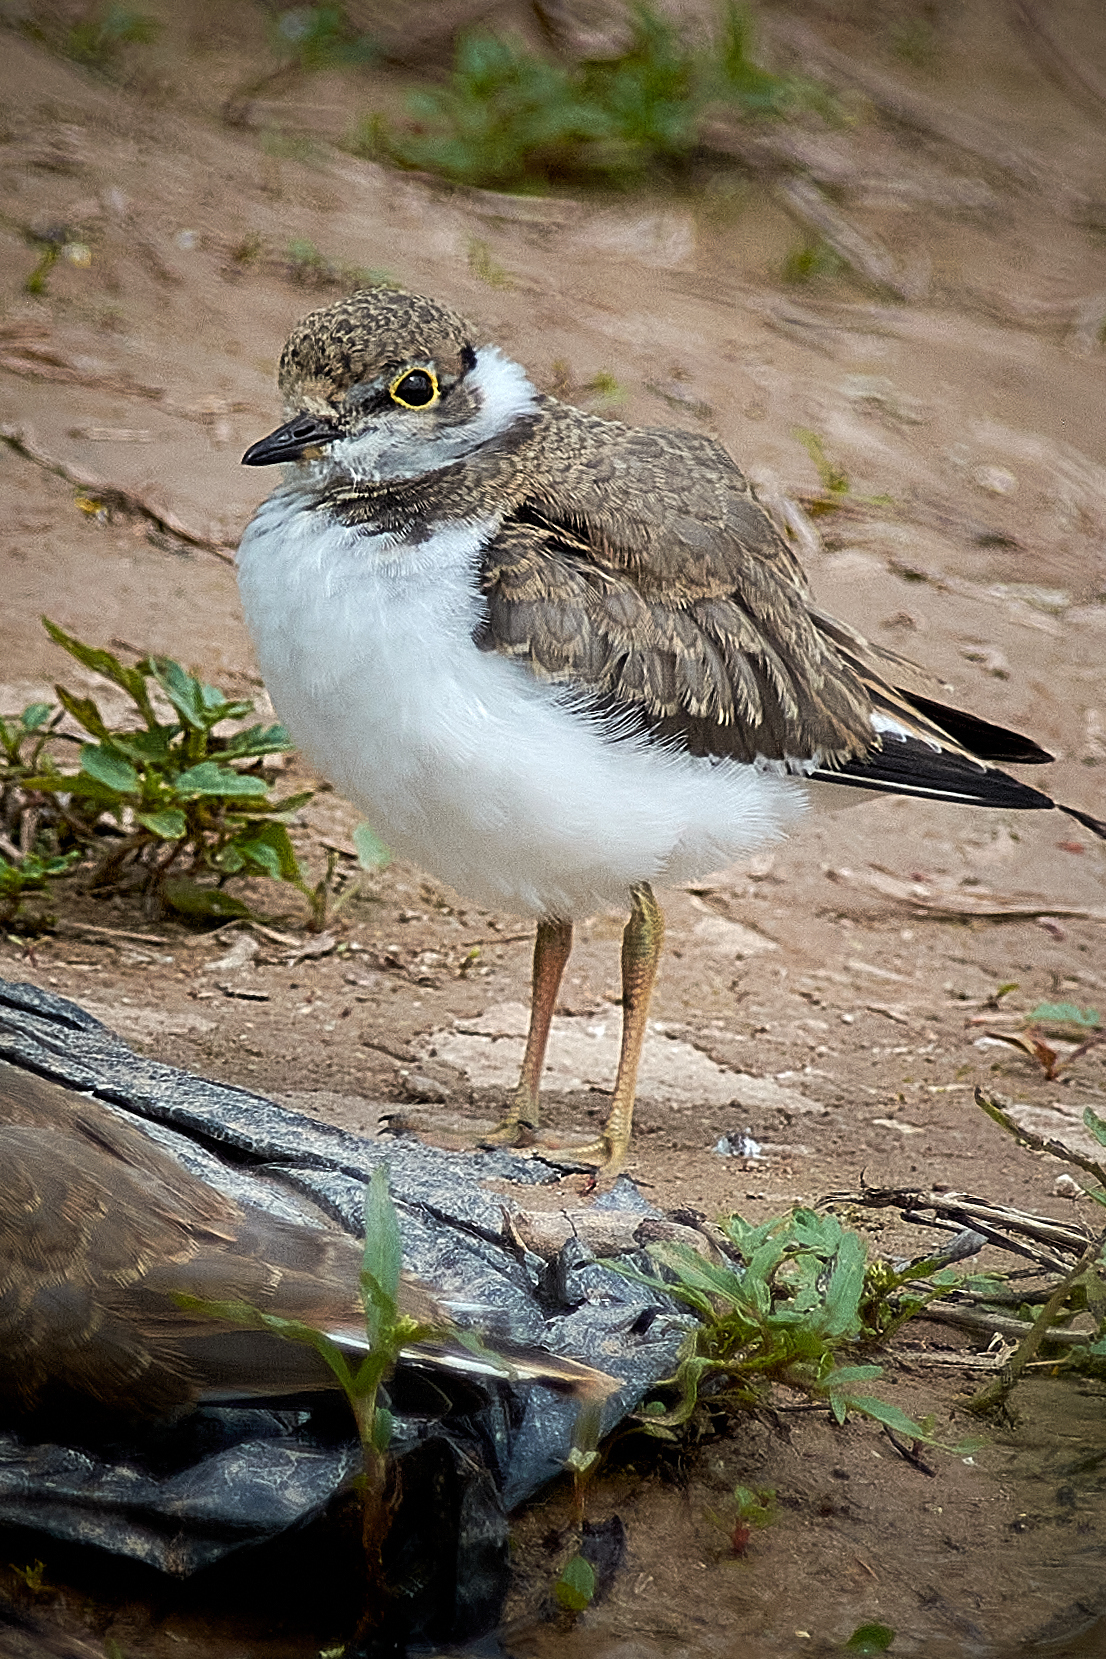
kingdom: Animalia
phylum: Chordata
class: Aves
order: Charadriiformes
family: Charadriidae
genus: Charadrius
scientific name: Charadrius dubius
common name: Little ringed plover
